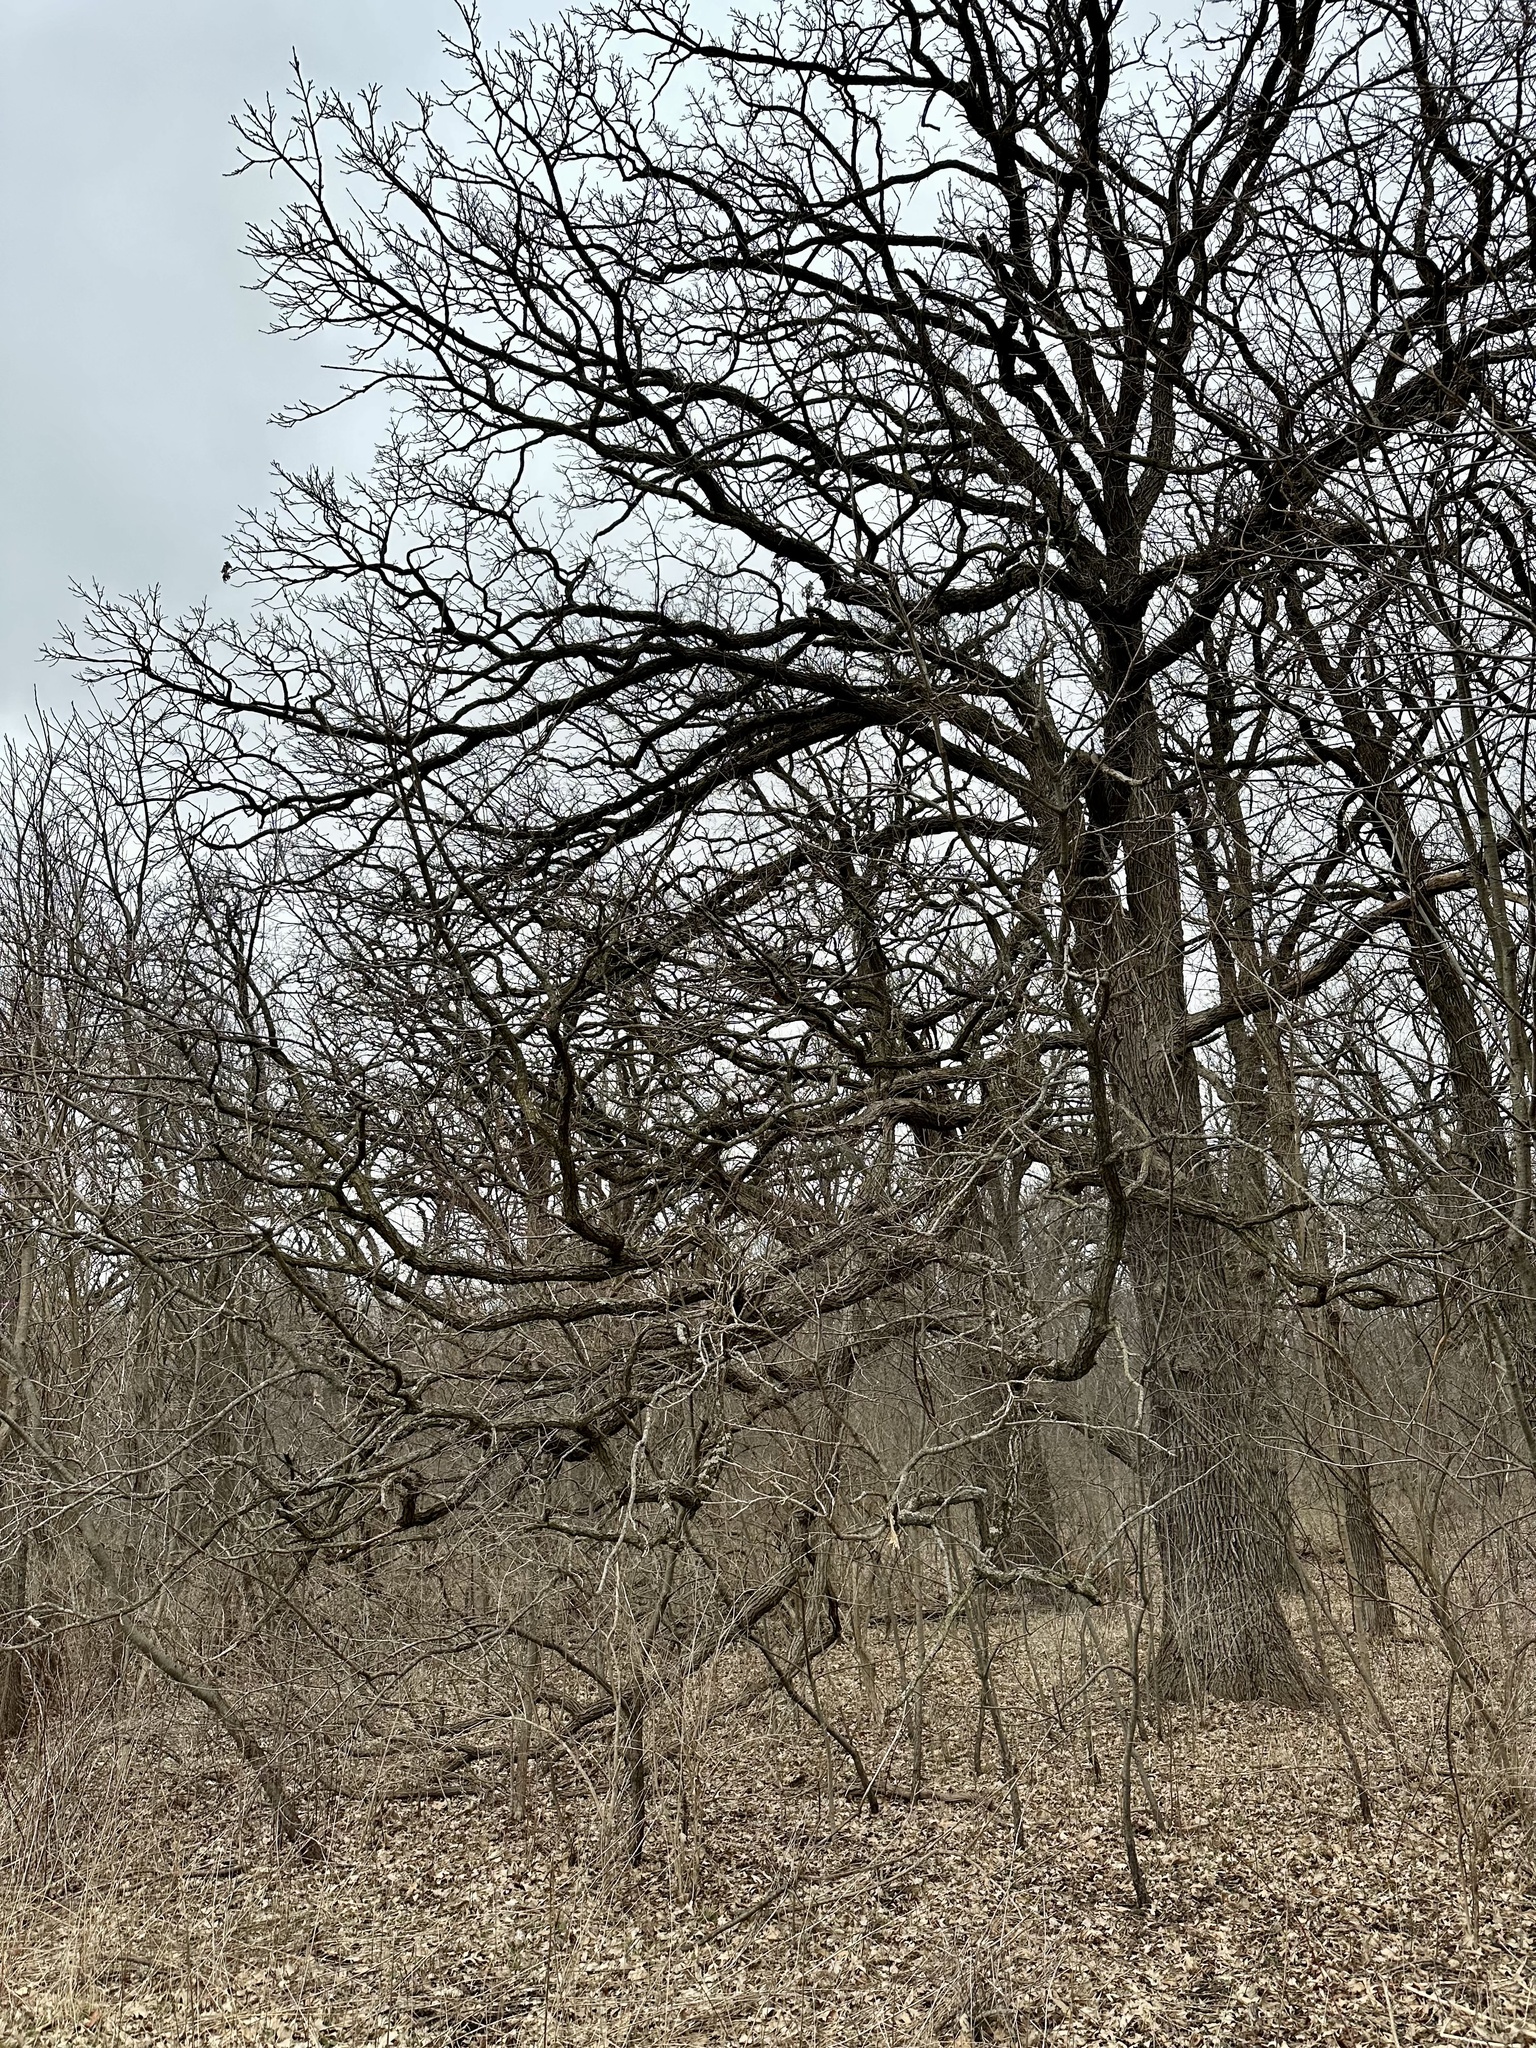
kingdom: Plantae
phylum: Tracheophyta
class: Magnoliopsida
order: Fagales
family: Fagaceae
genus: Quercus
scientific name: Quercus macrocarpa
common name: Bur oak
